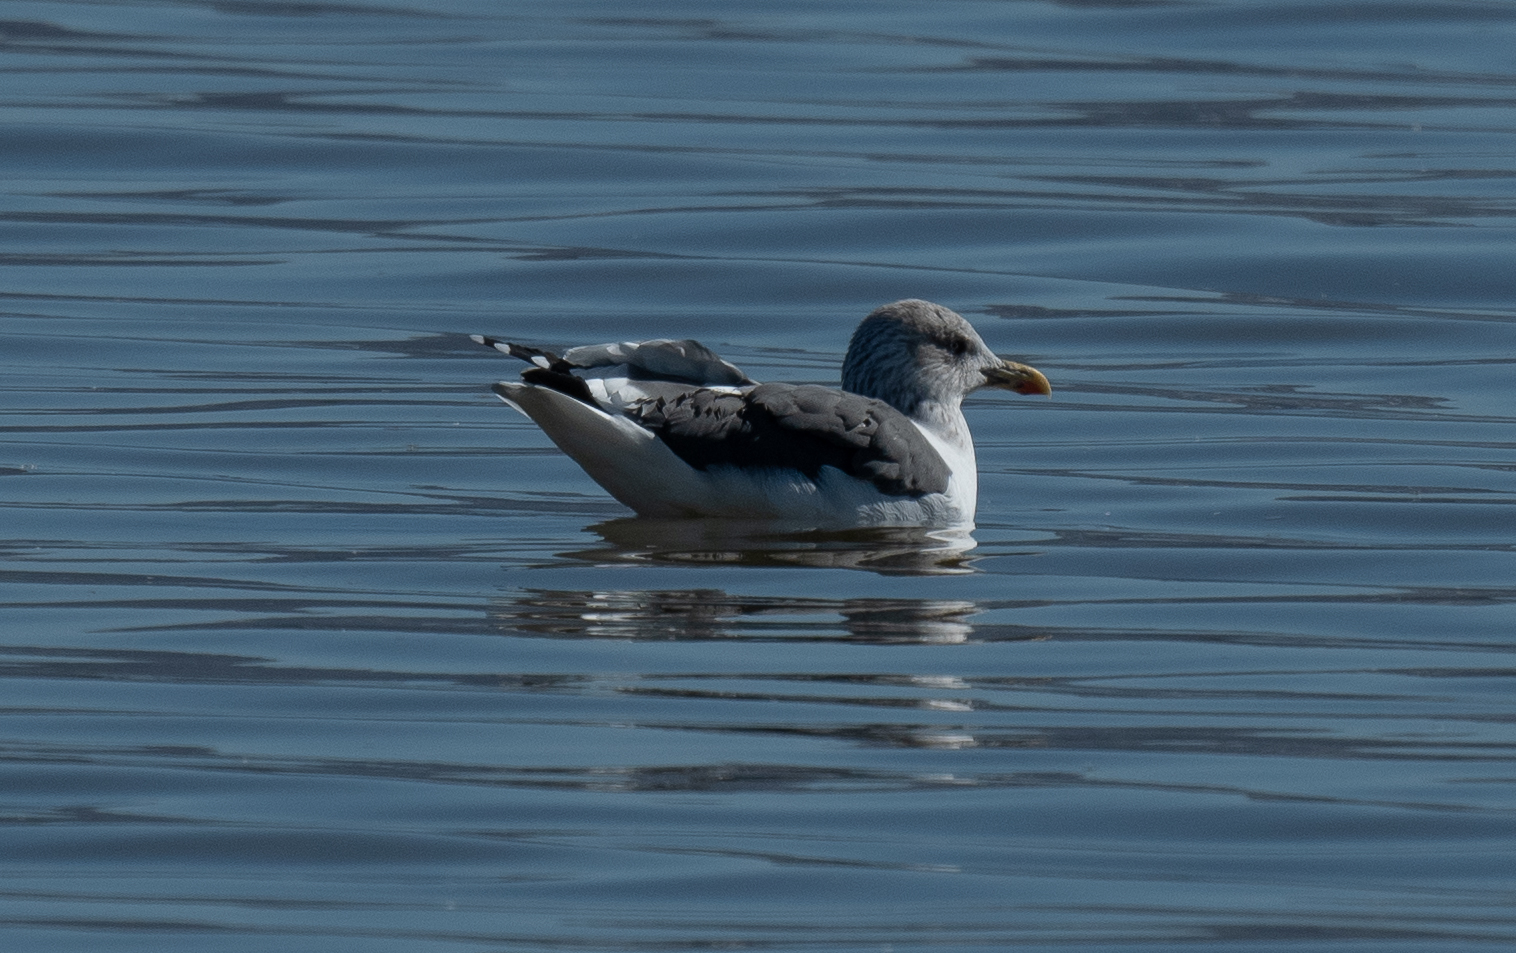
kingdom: Animalia
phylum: Chordata
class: Aves
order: Charadriiformes
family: Laridae
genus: Larus
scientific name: Larus fuscus
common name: Lesser black-backed gull
